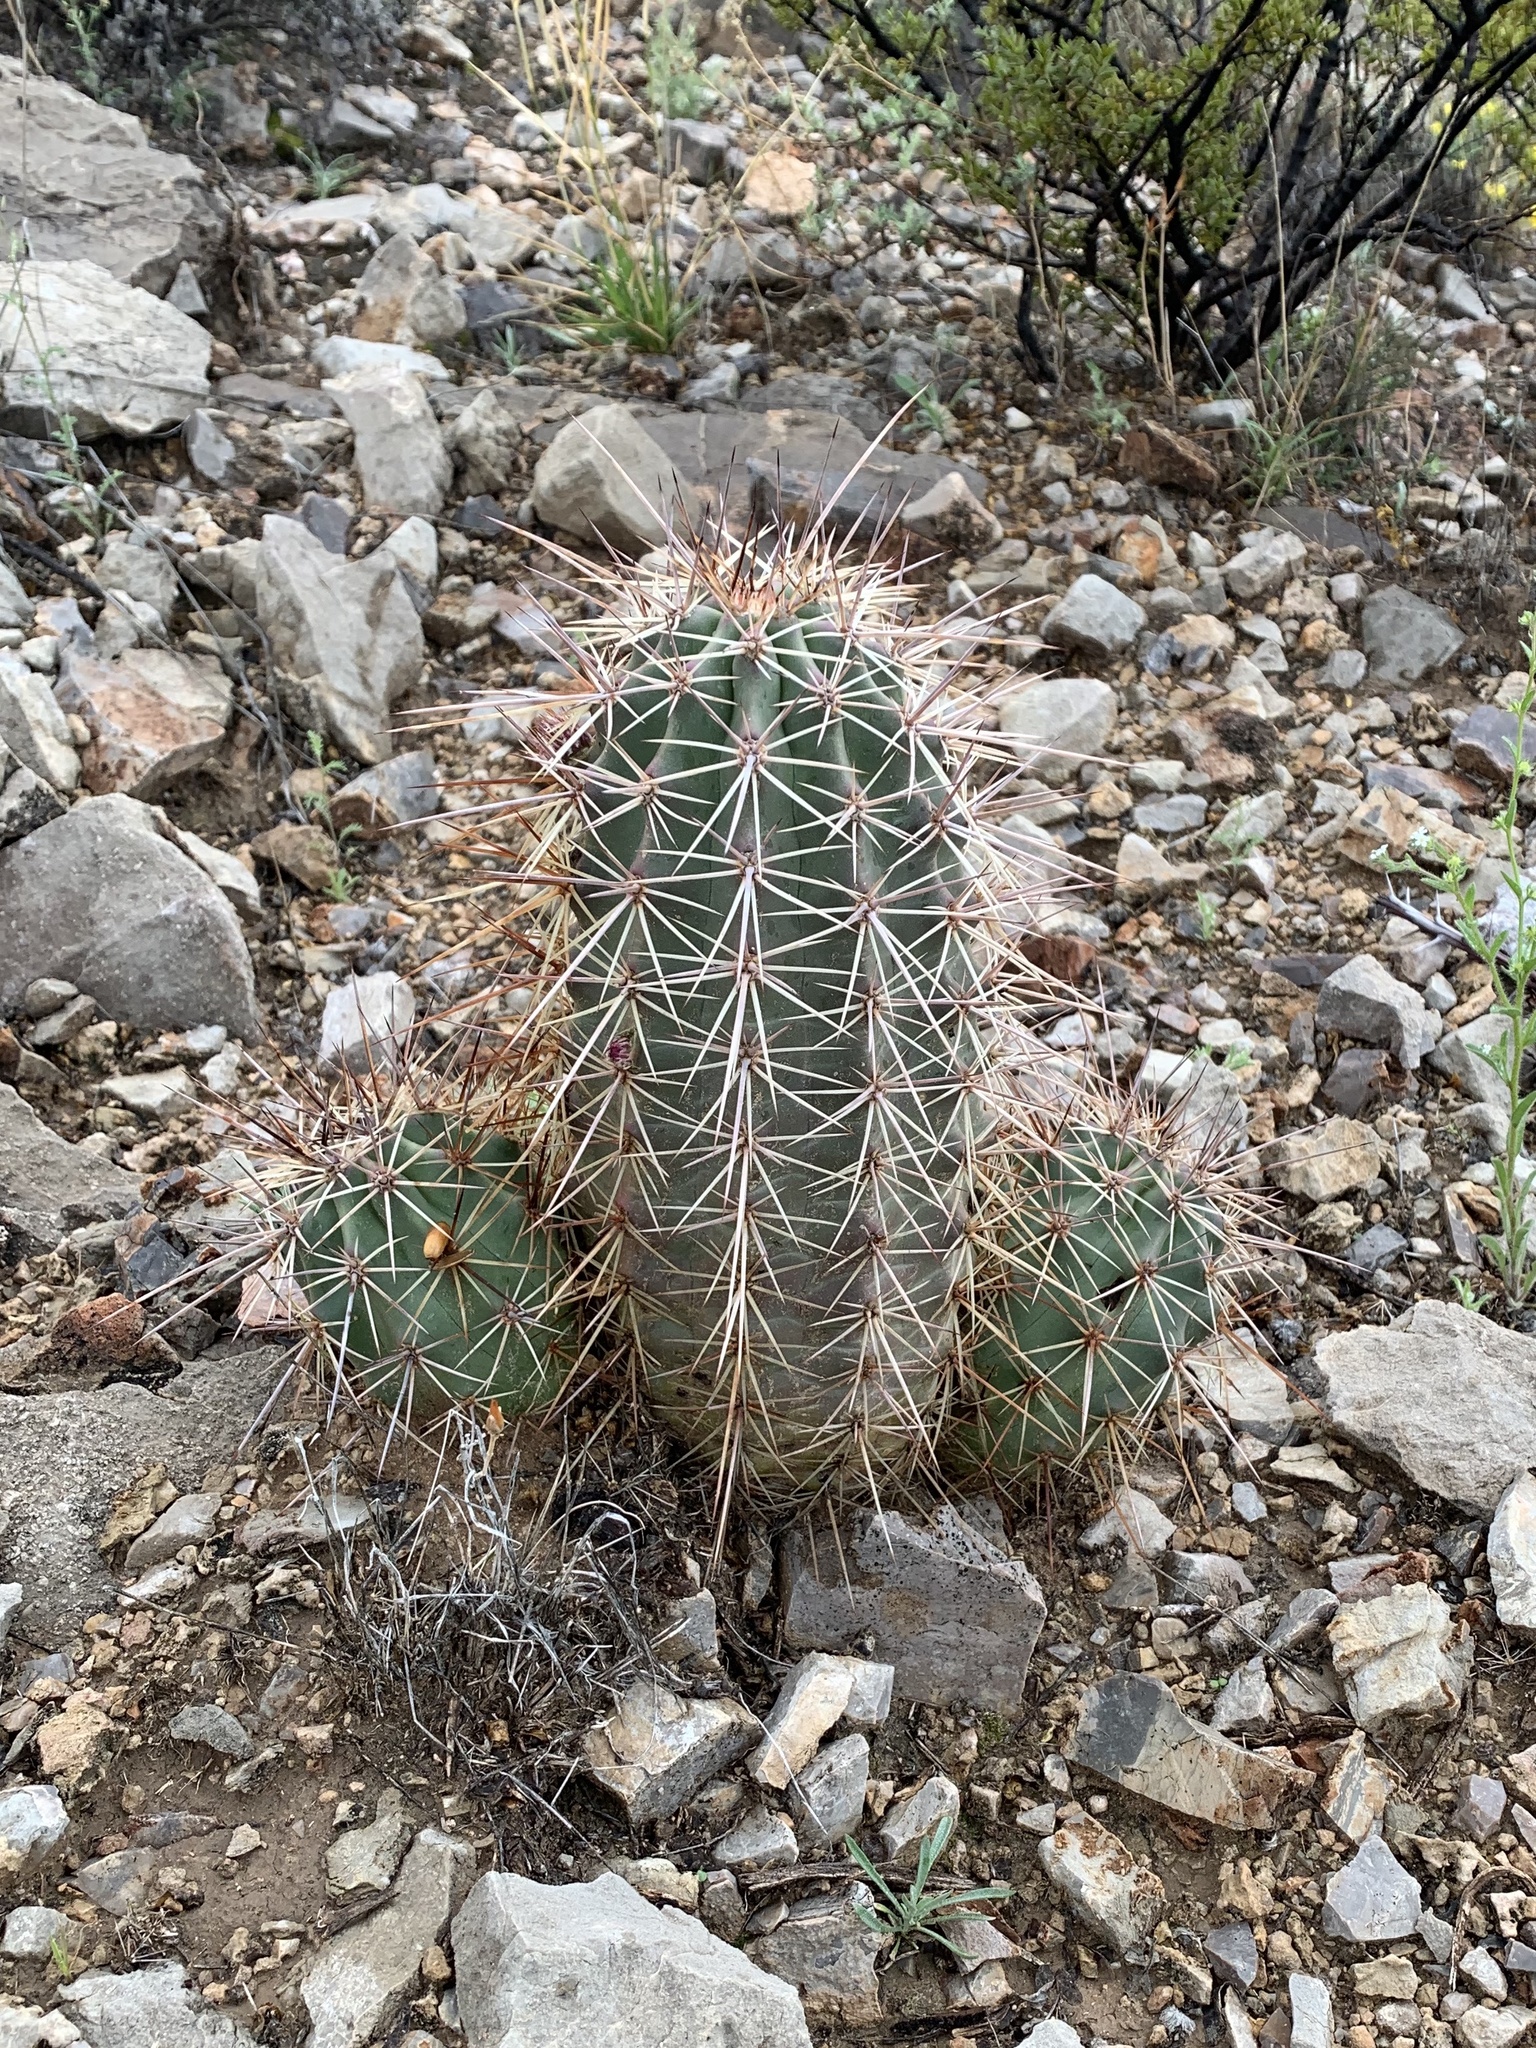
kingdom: Plantae
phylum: Tracheophyta
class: Magnoliopsida
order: Caryophyllales
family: Cactaceae
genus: Echinocereus
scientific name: Echinocereus coccineus
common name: Scarlet hedgehog cactus
